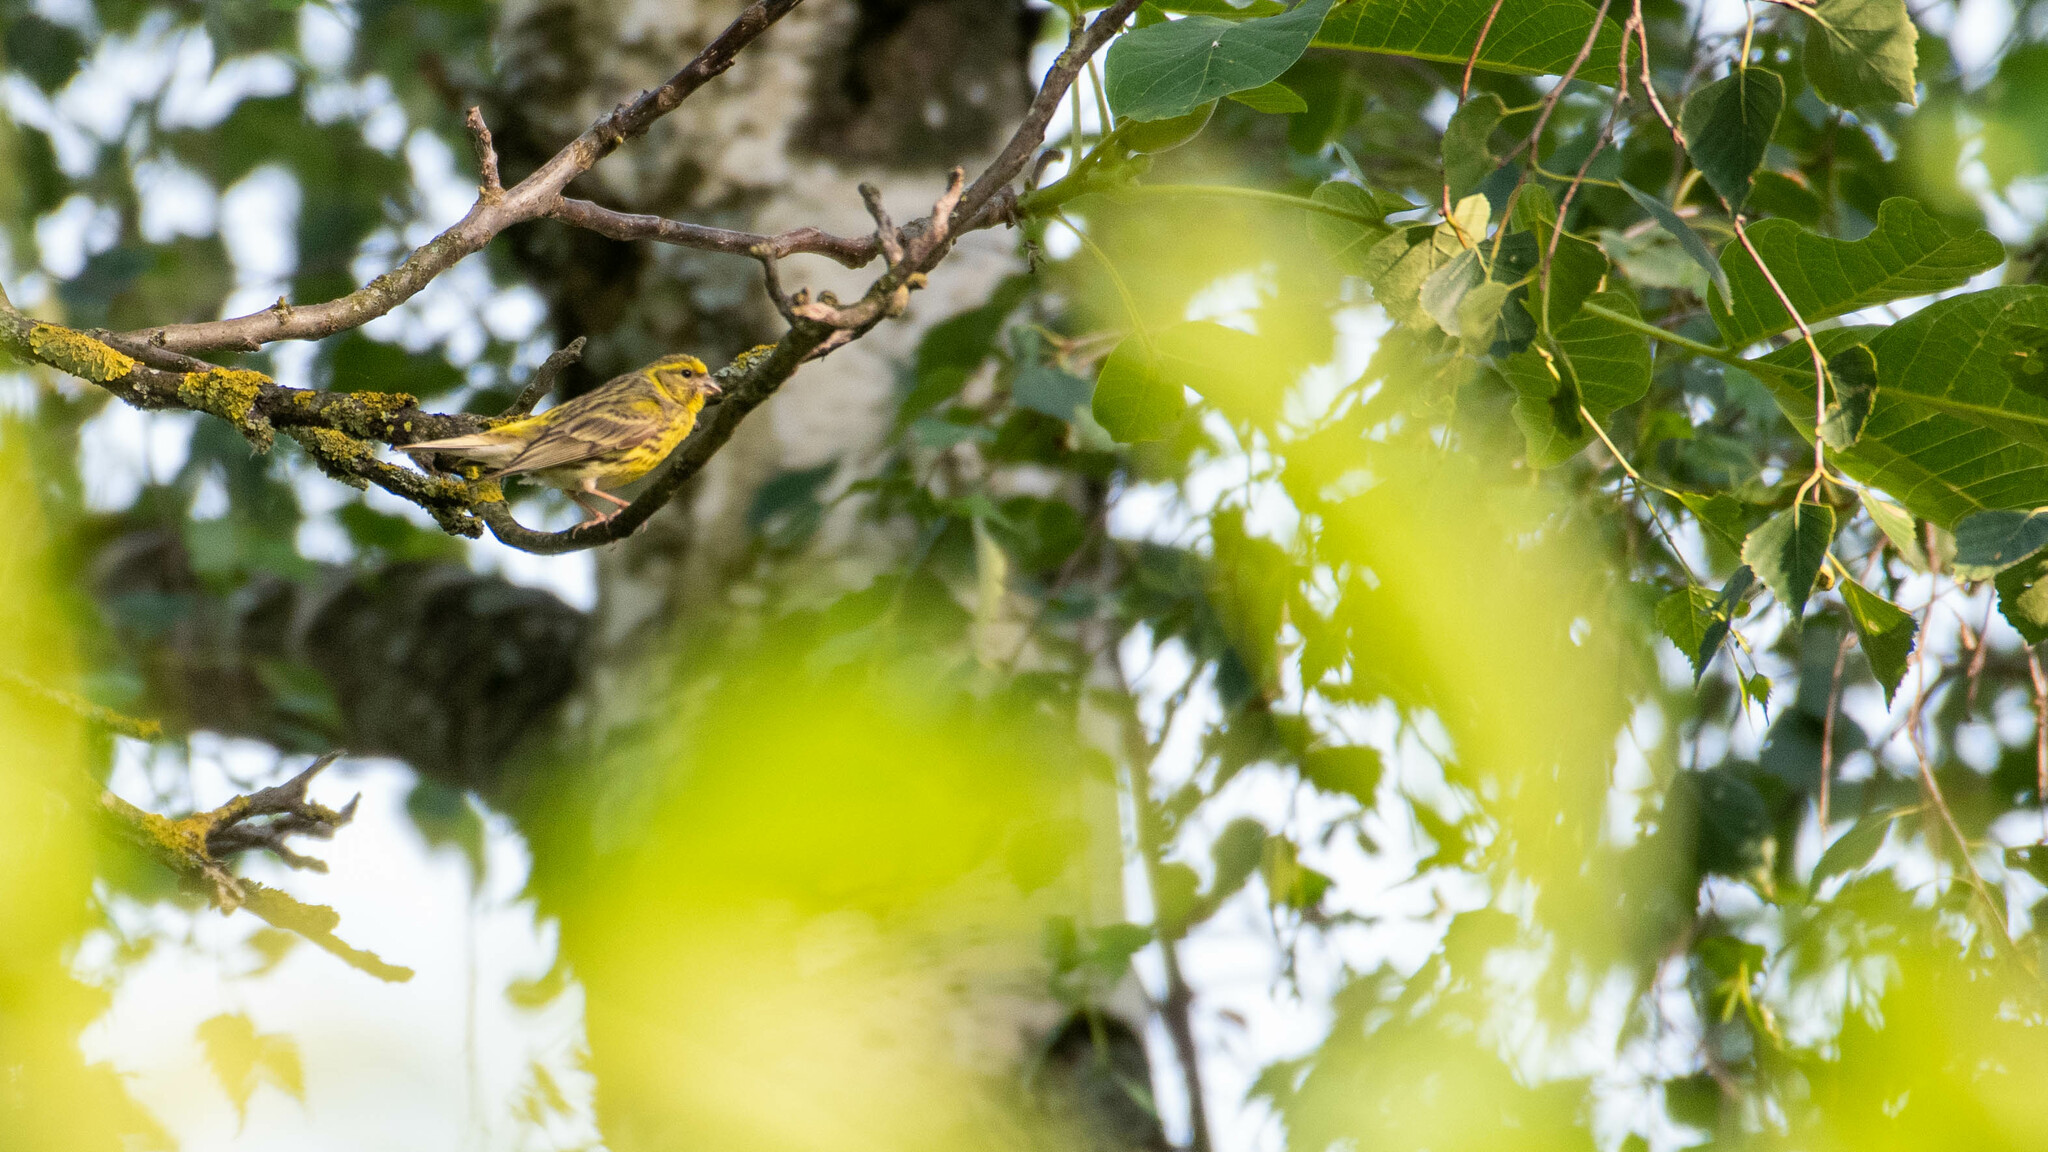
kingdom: Animalia
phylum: Chordata
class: Aves
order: Passeriformes
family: Fringillidae
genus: Serinus
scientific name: Serinus serinus
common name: European serin
